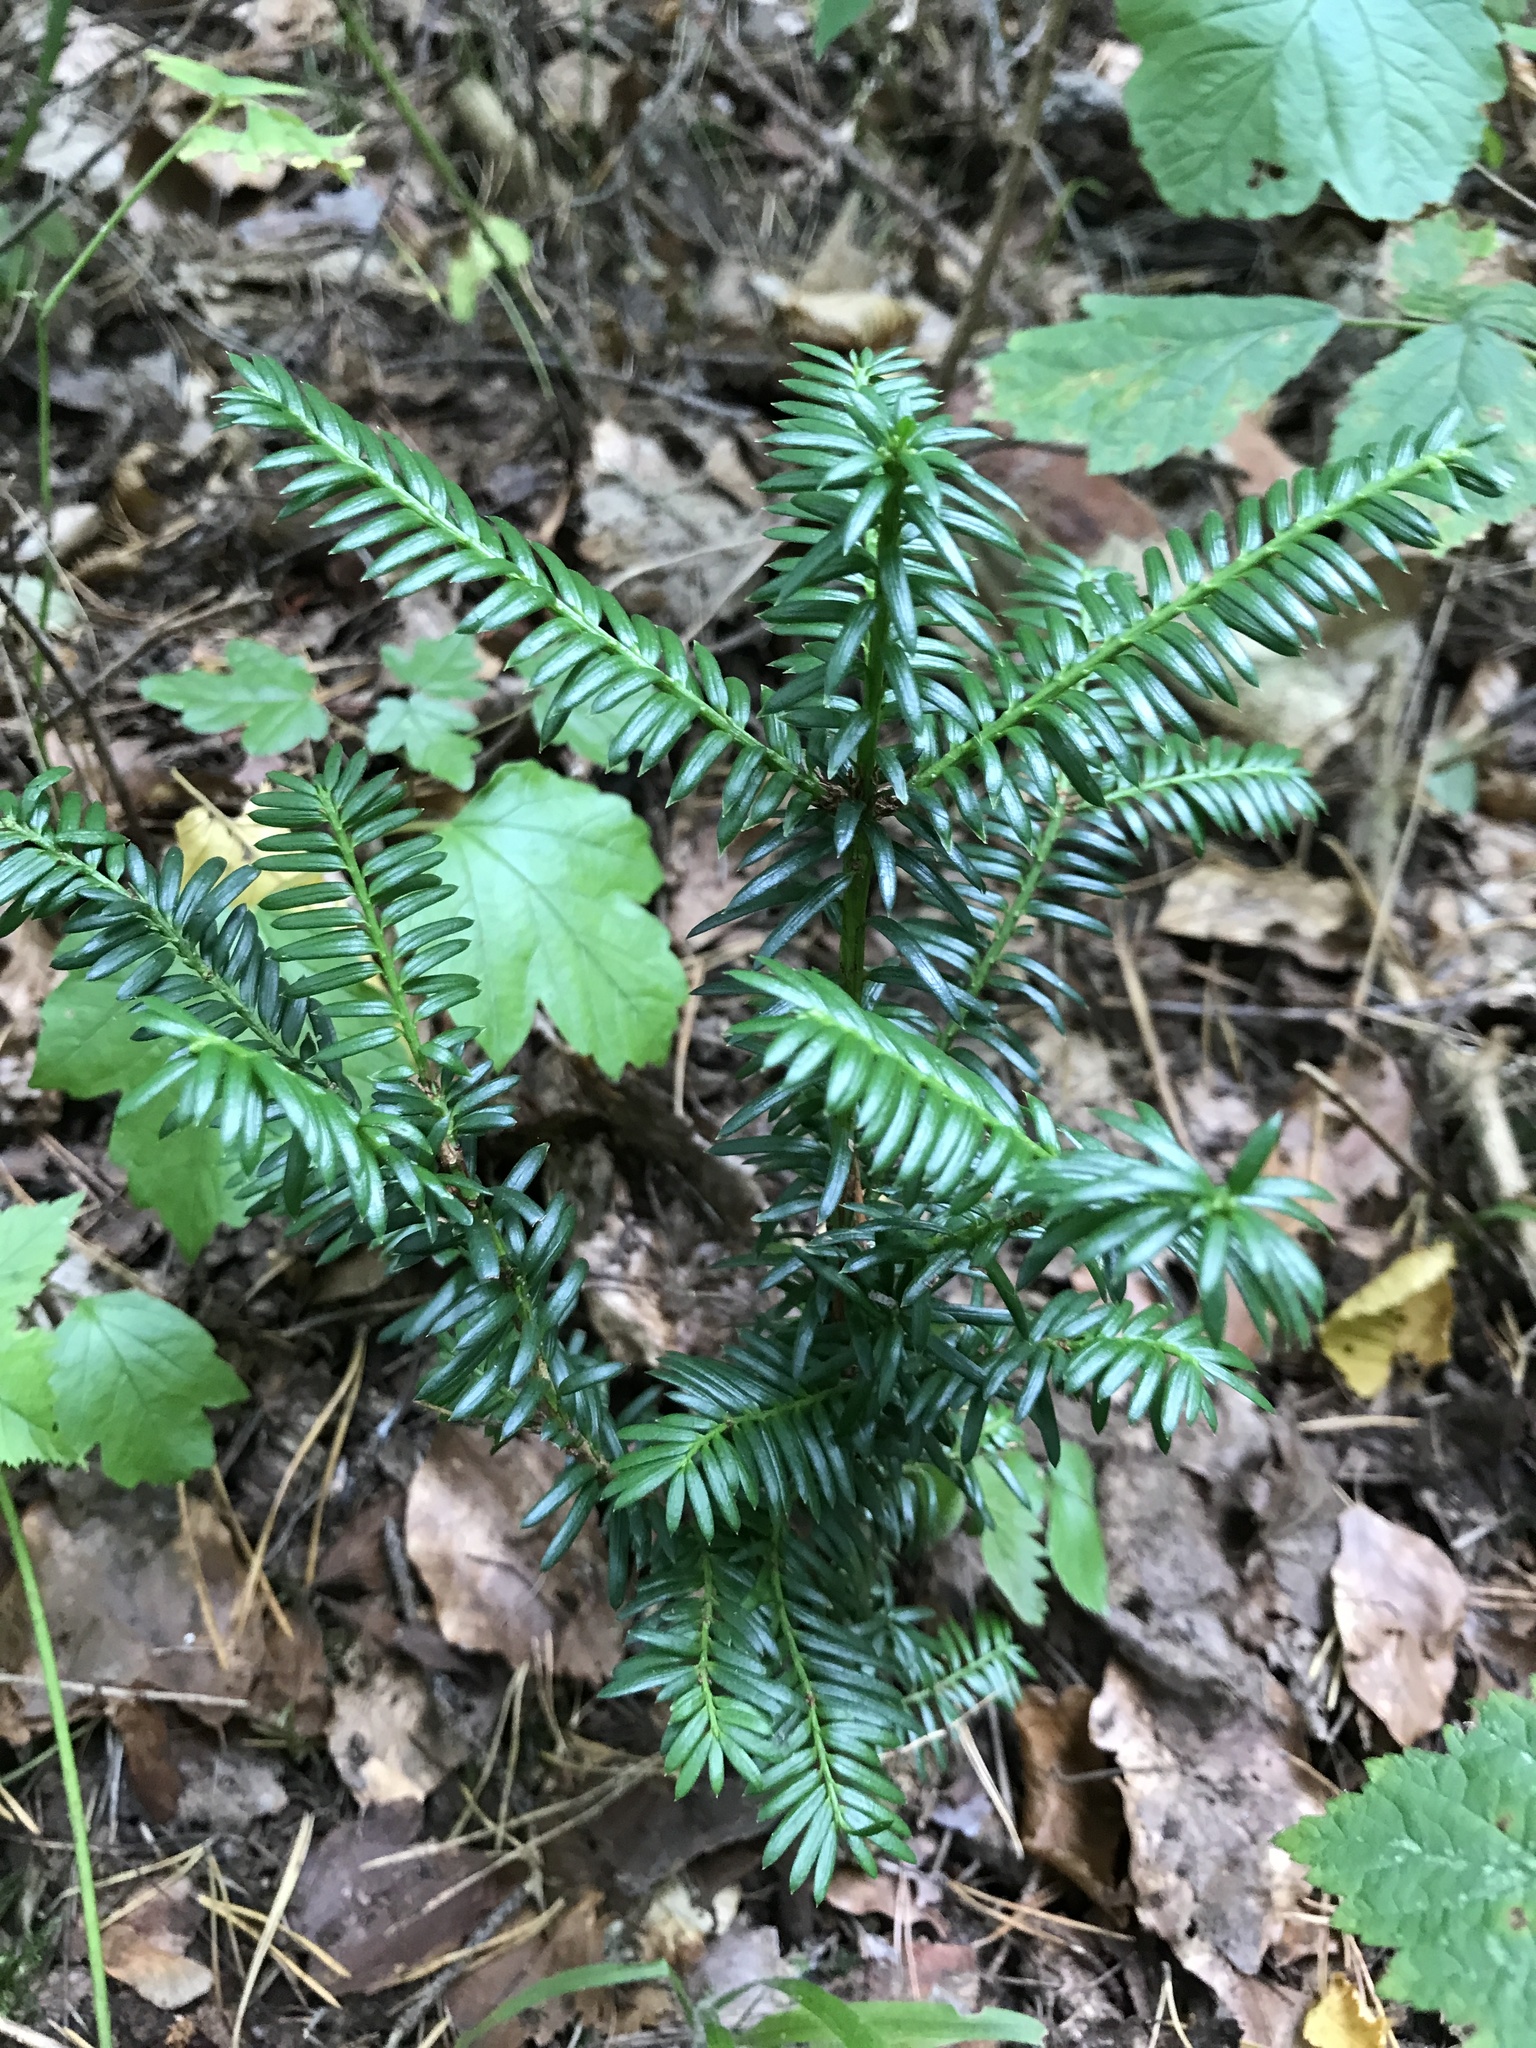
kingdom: Plantae
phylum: Tracheophyta
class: Pinopsida
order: Pinales
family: Taxaceae
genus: Taxus
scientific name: Taxus baccata
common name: Yew
